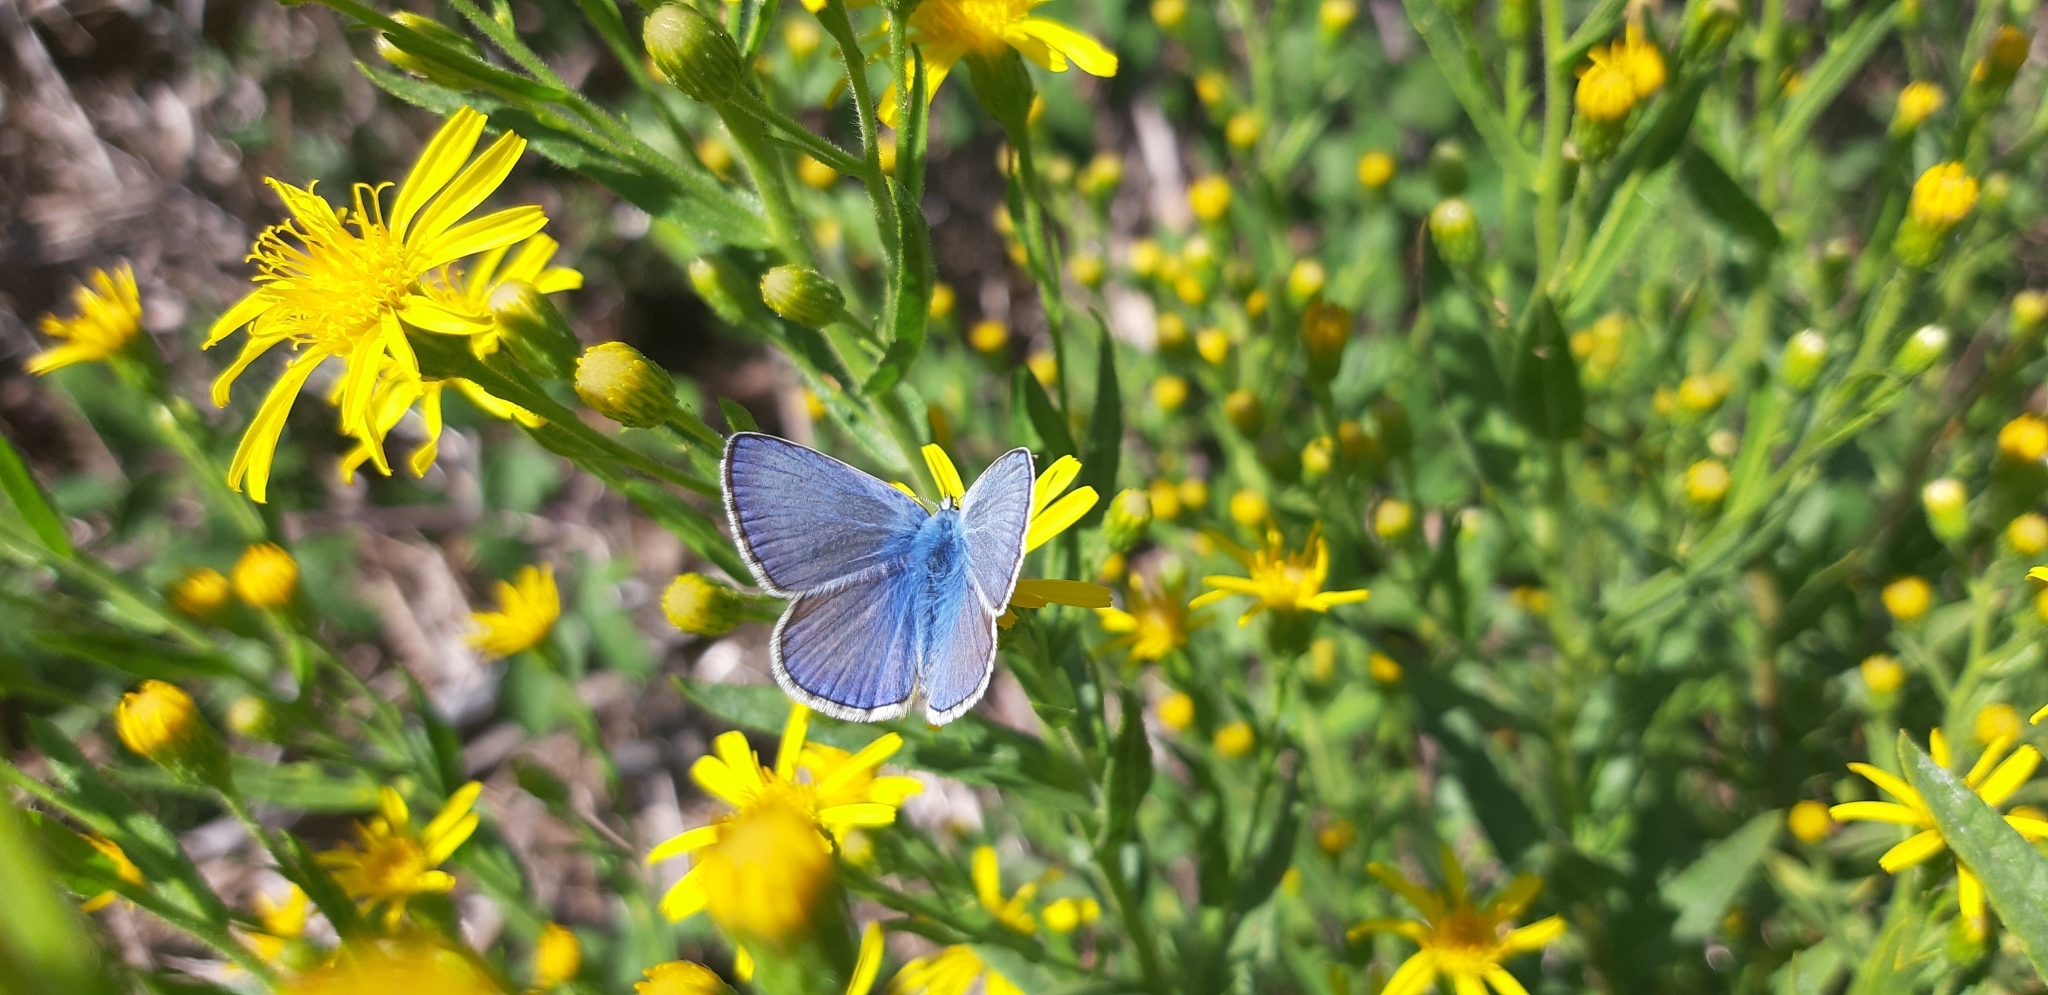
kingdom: Animalia
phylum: Arthropoda
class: Insecta
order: Lepidoptera
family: Lycaenidae
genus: Polyommatus
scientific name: Polyommatus icarus
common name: Common blue
